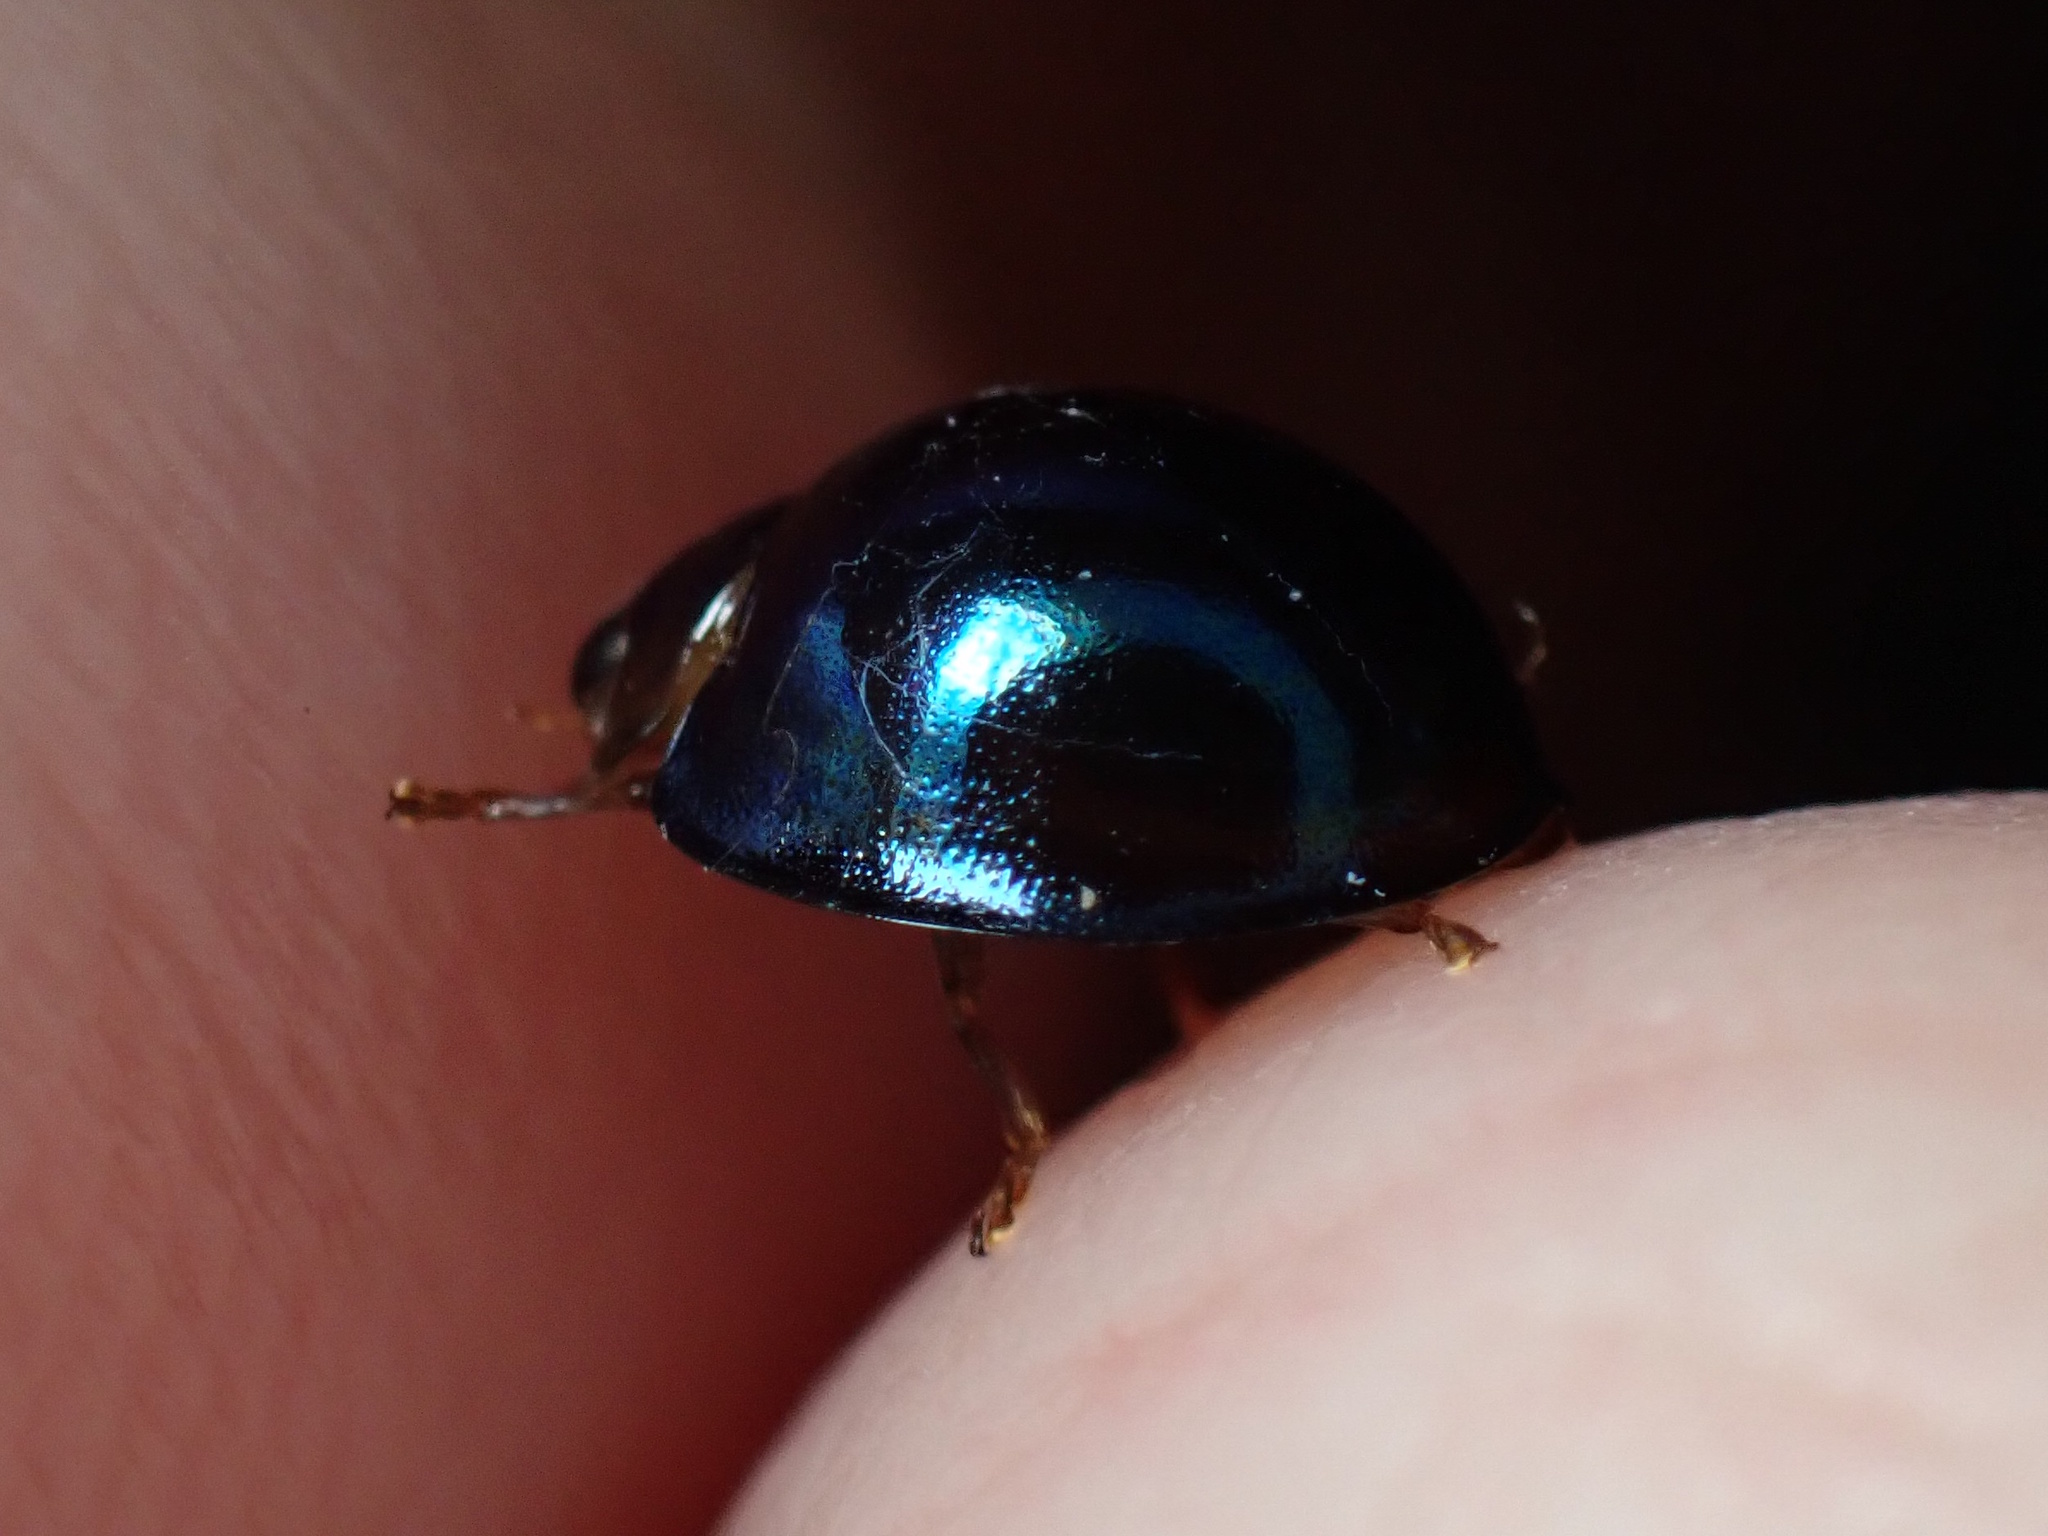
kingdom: Animalia
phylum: Arthropoda
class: Insecta
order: Coleoptera
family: Coccinellidae
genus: Halmus
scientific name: Halmus chalybeus
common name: Steel blue ladybird beetle
